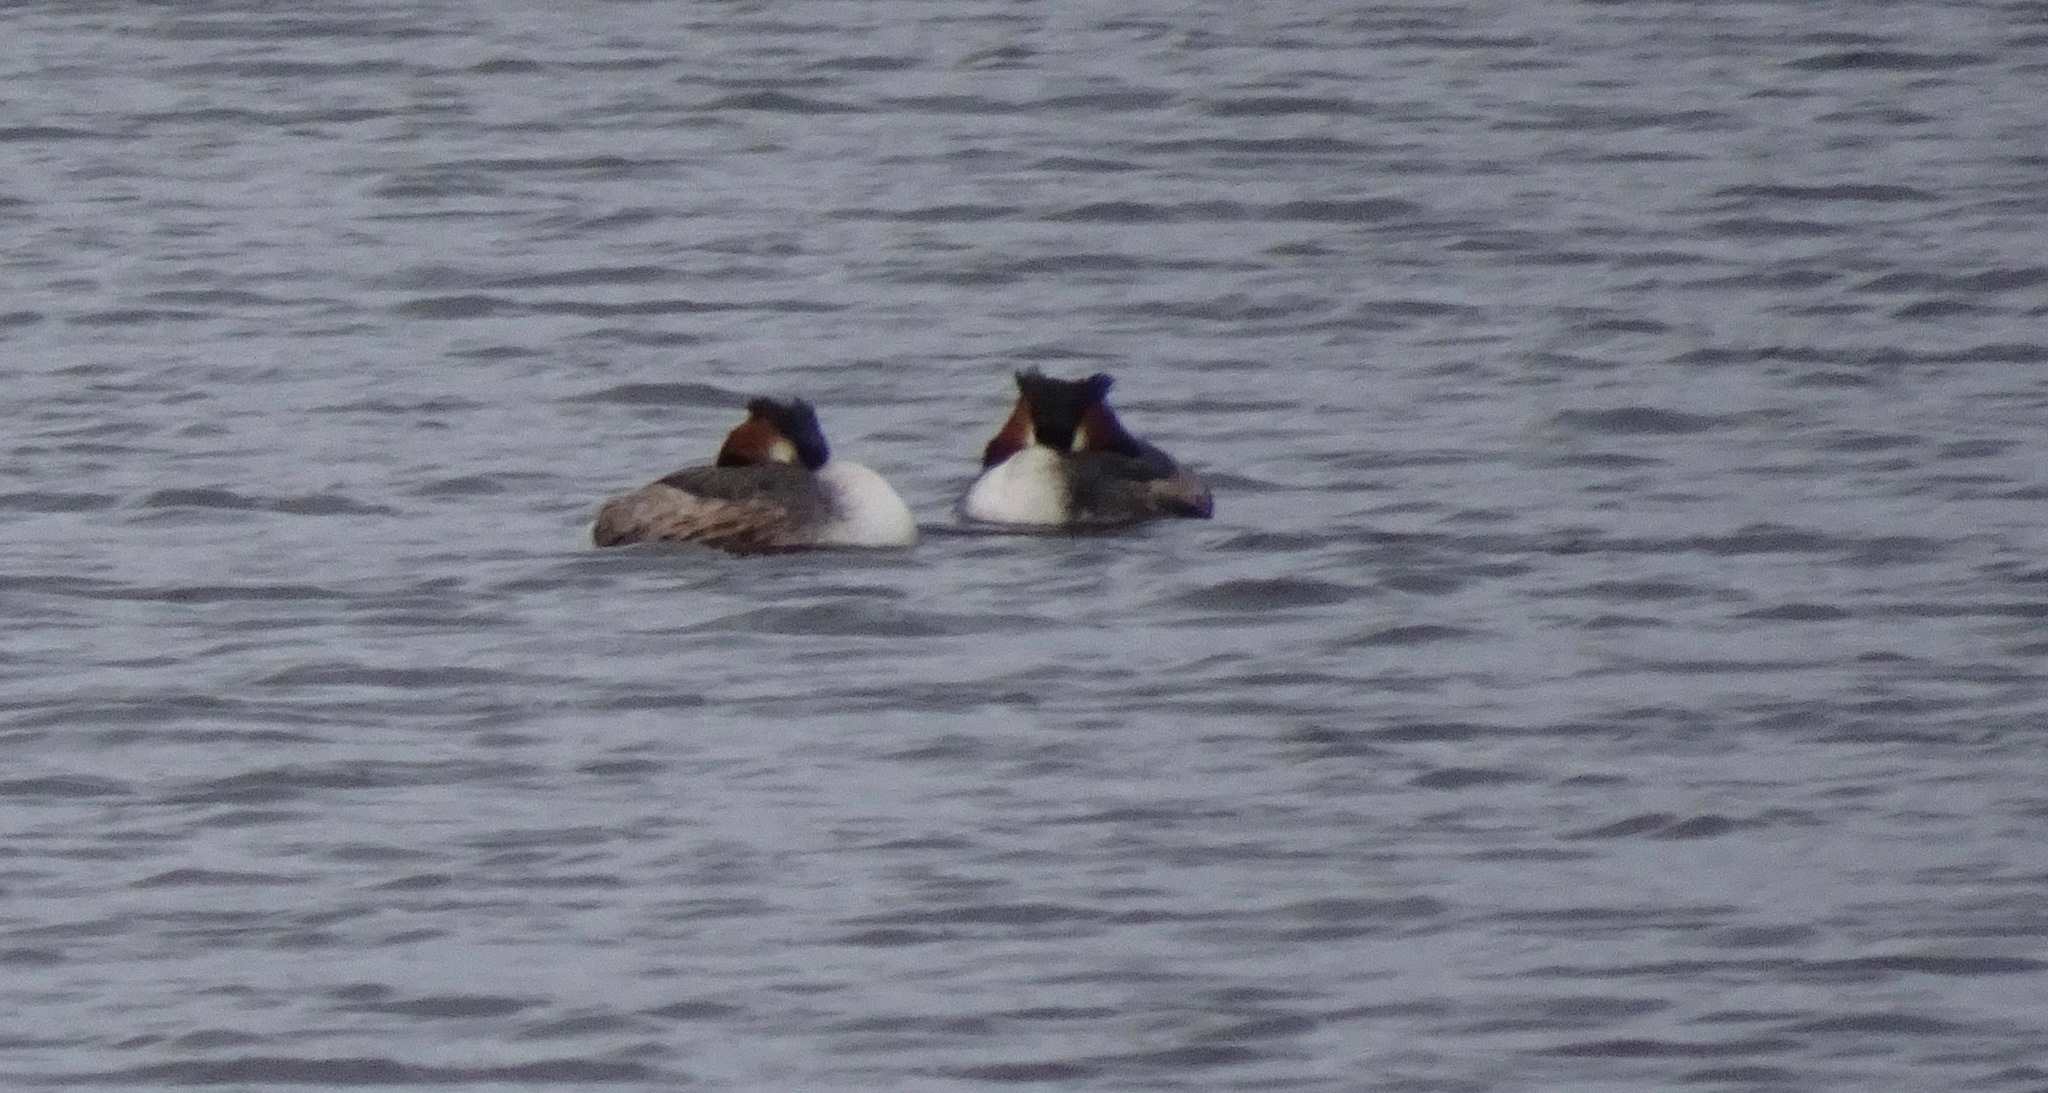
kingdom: Animalia
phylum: Chordata
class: Aves
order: Podicipediformes
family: Podicipedidae
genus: Podiceps
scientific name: Podiceps cristatus
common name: Great crested grebe
